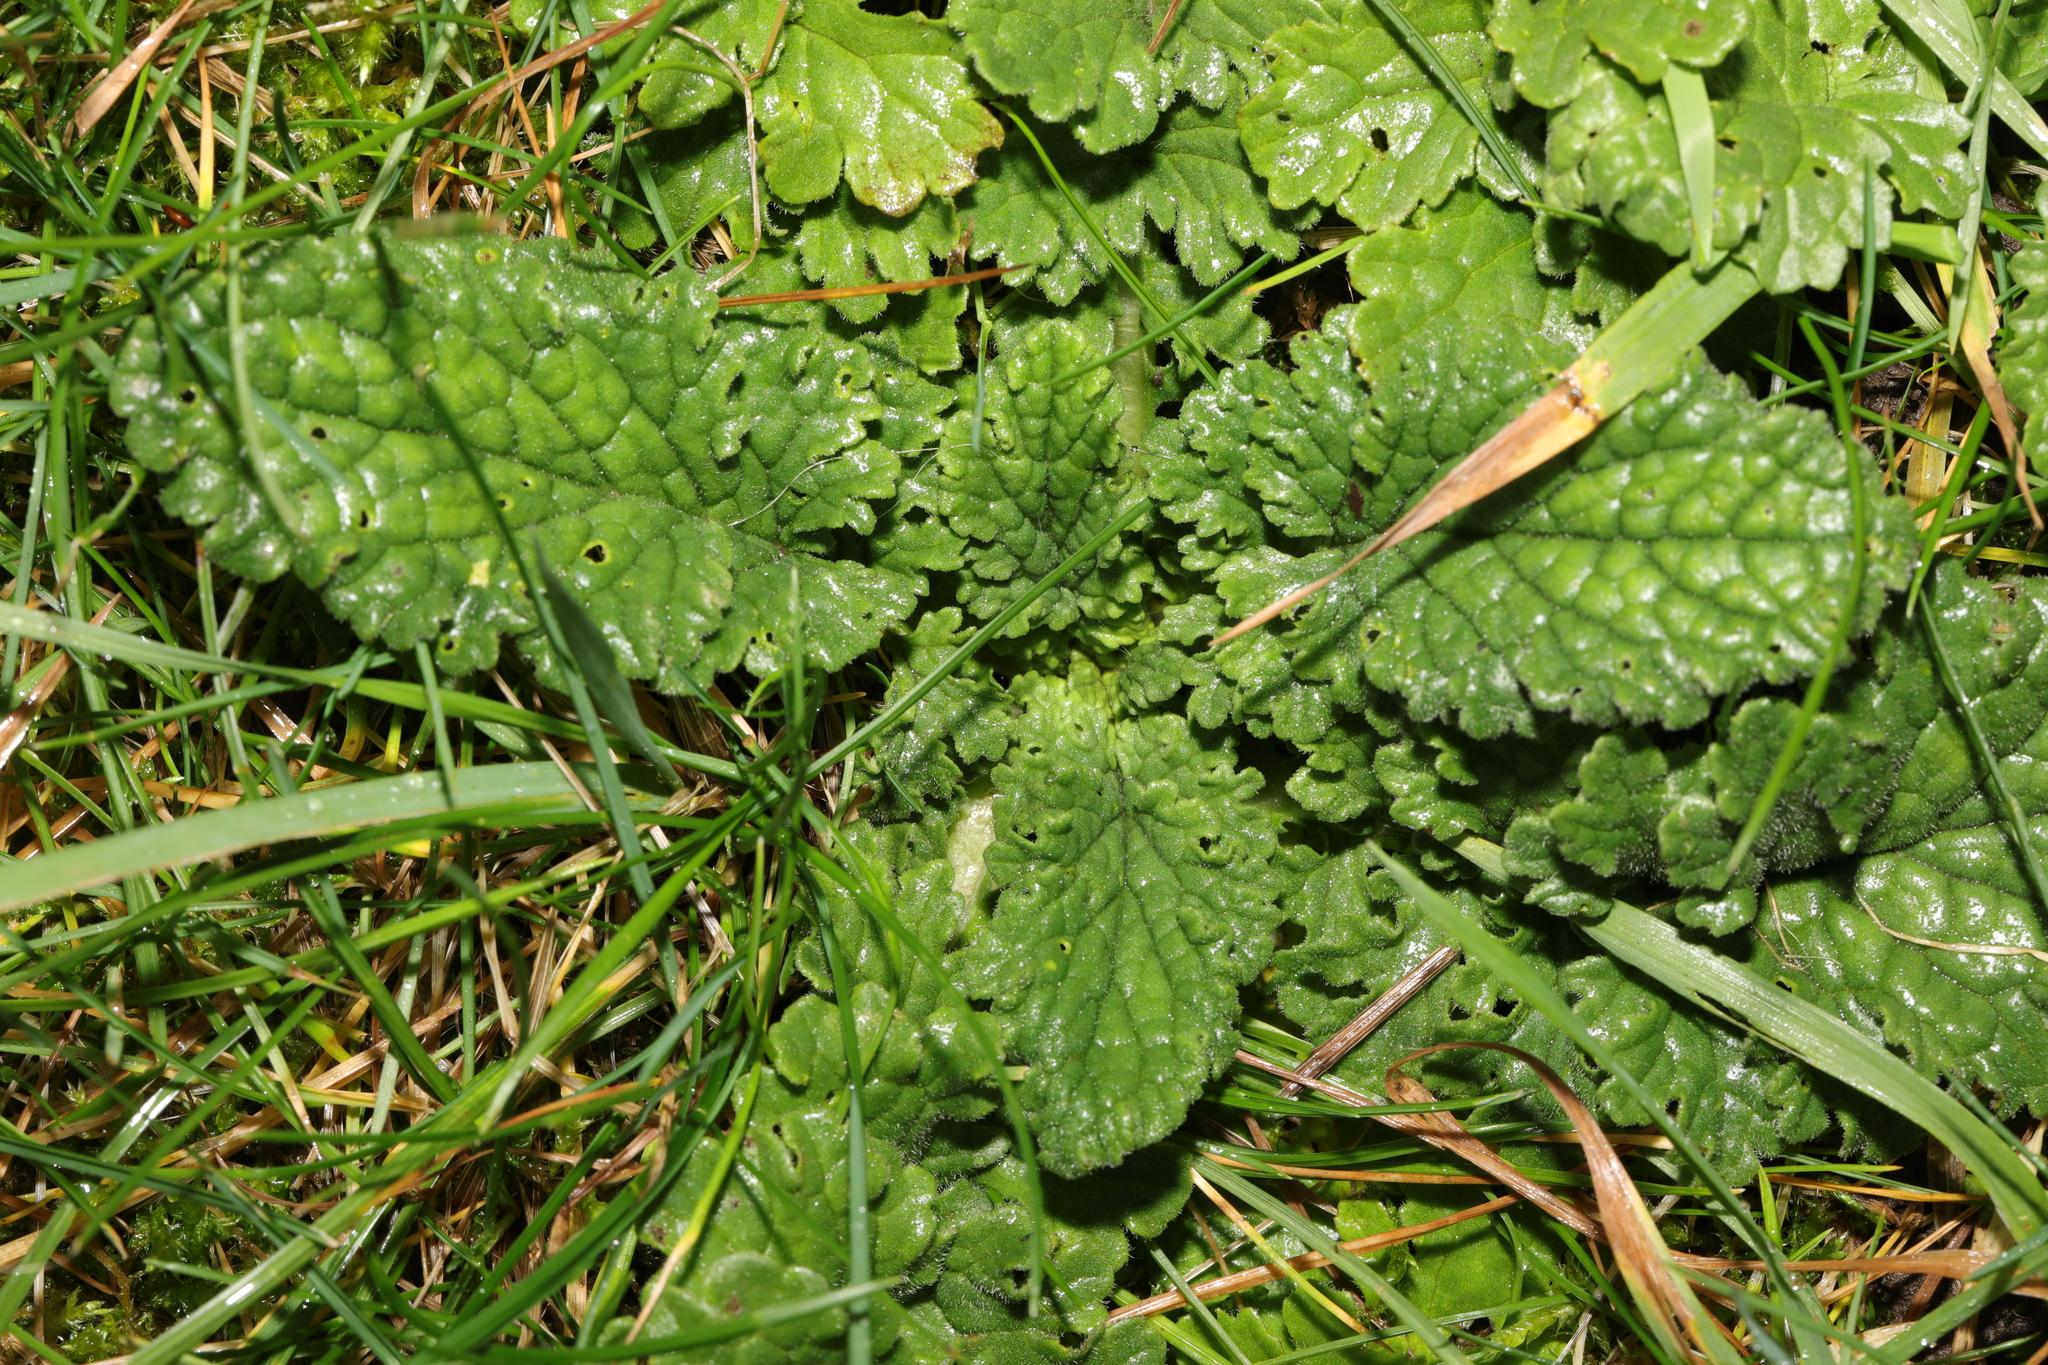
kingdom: Plantae
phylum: Tracheophyta
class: Magnoliopsida
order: Asterales
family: Asteraceae
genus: Jacobaea
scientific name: Jacobaea vulgaris
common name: Stinking willie
